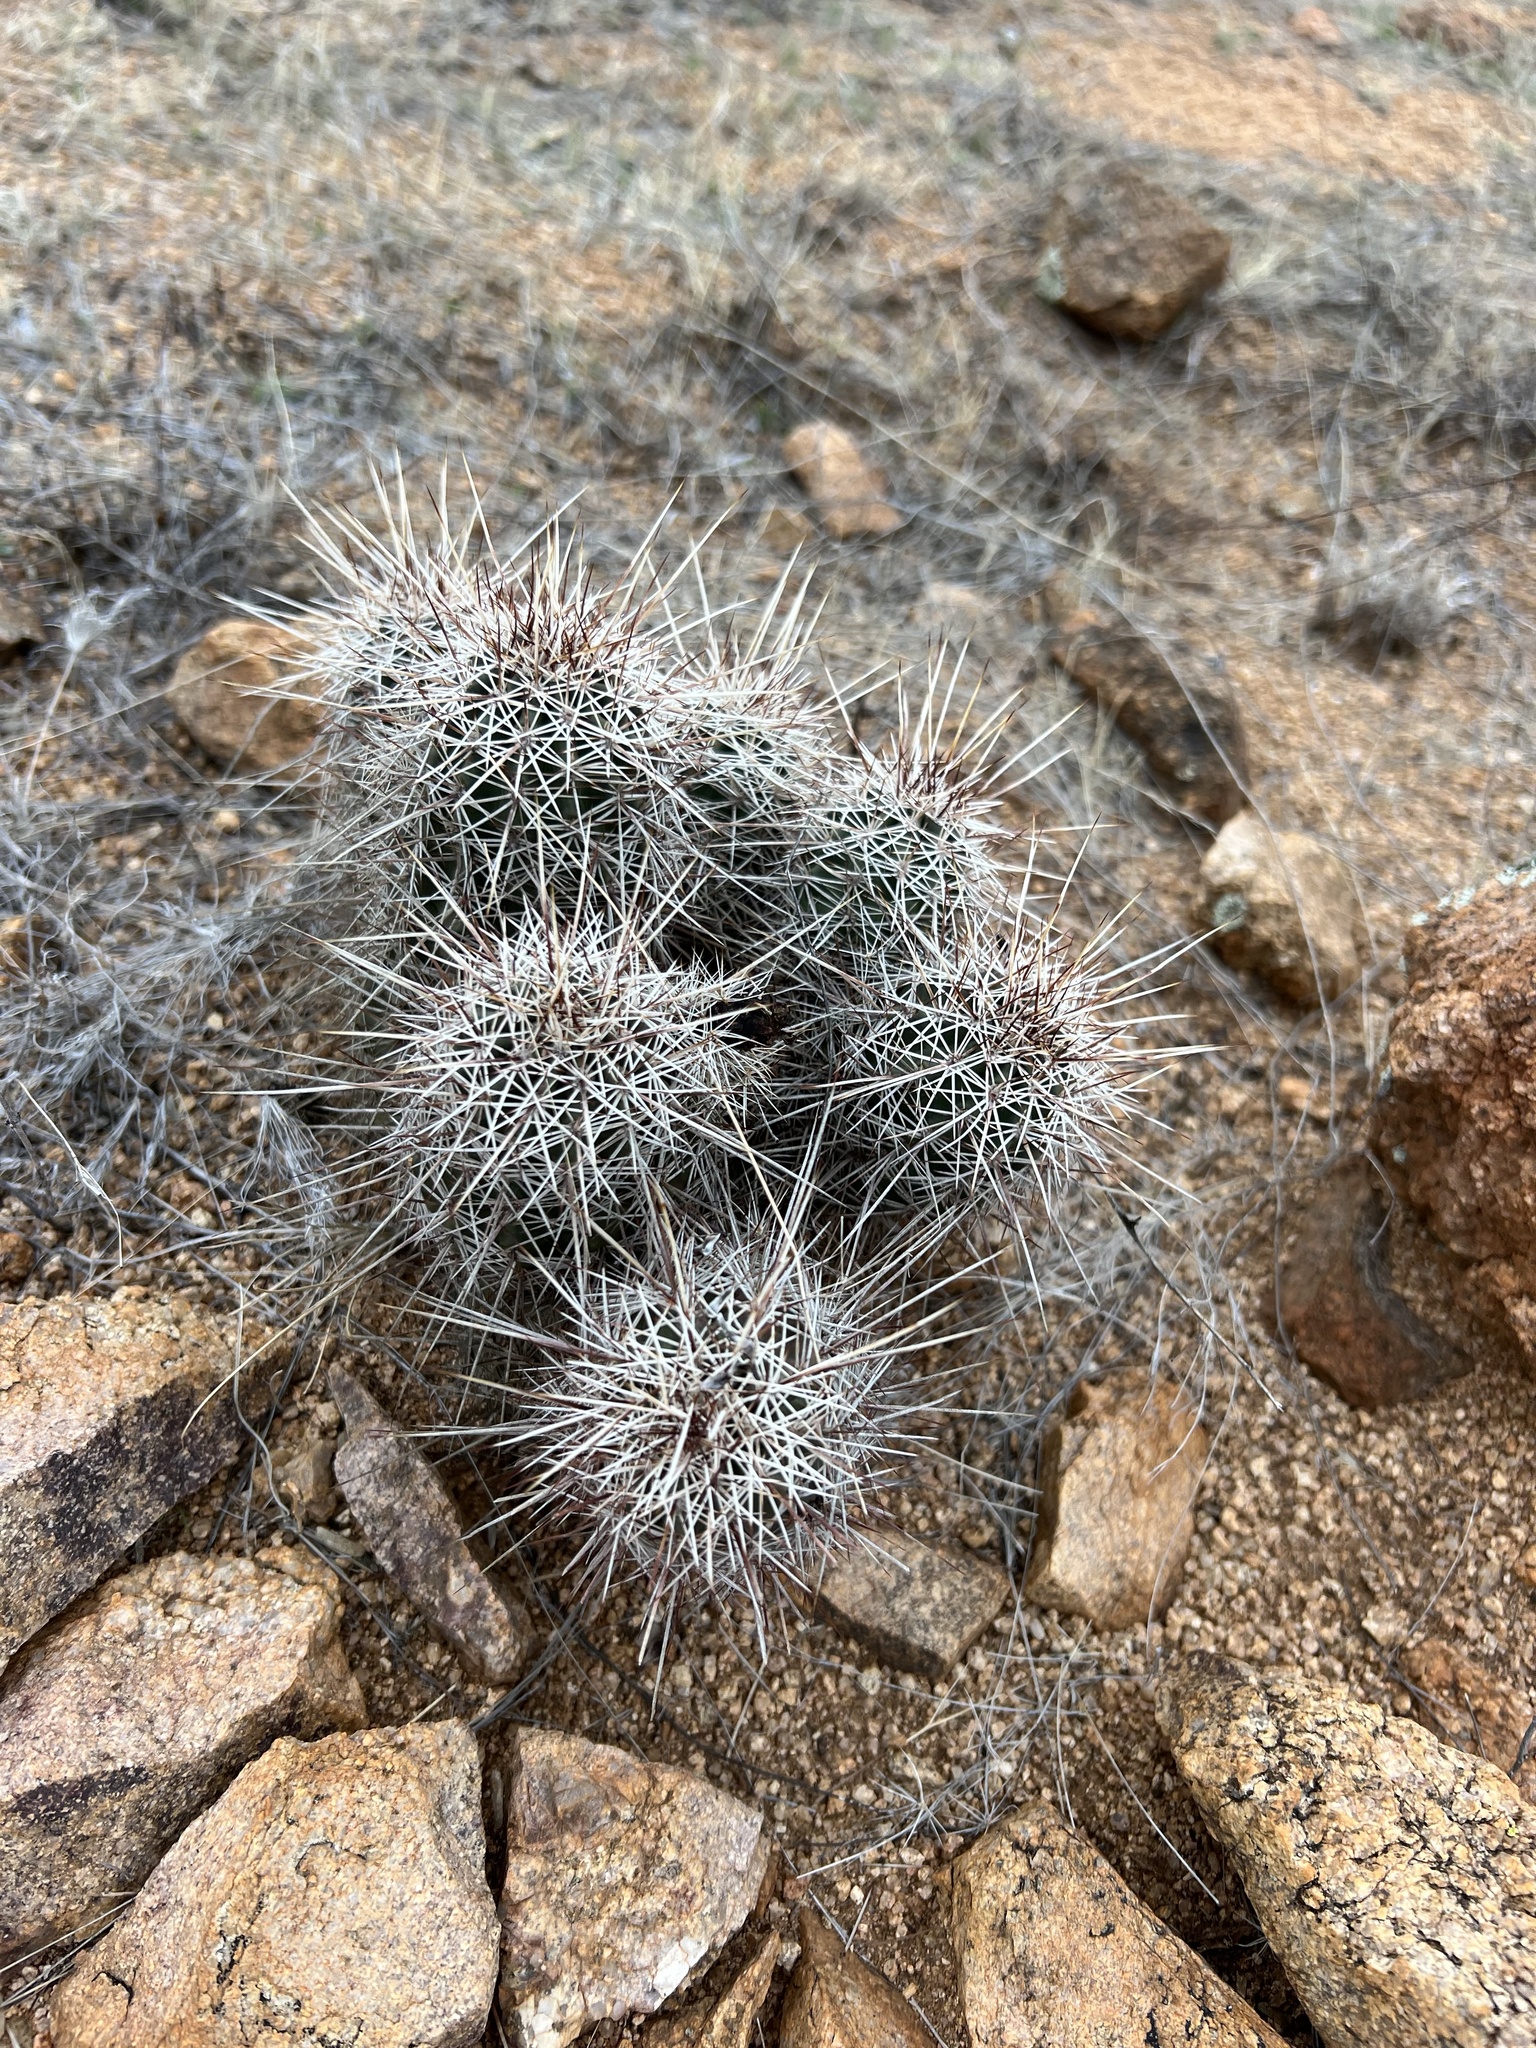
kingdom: Plantae
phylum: Tracheophyta
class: Magnoliopsida
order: Caryophyllales
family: Cactaceae
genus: Echinocereus
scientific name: Echinocereus fasciculatus
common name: Bundle hedgehog
